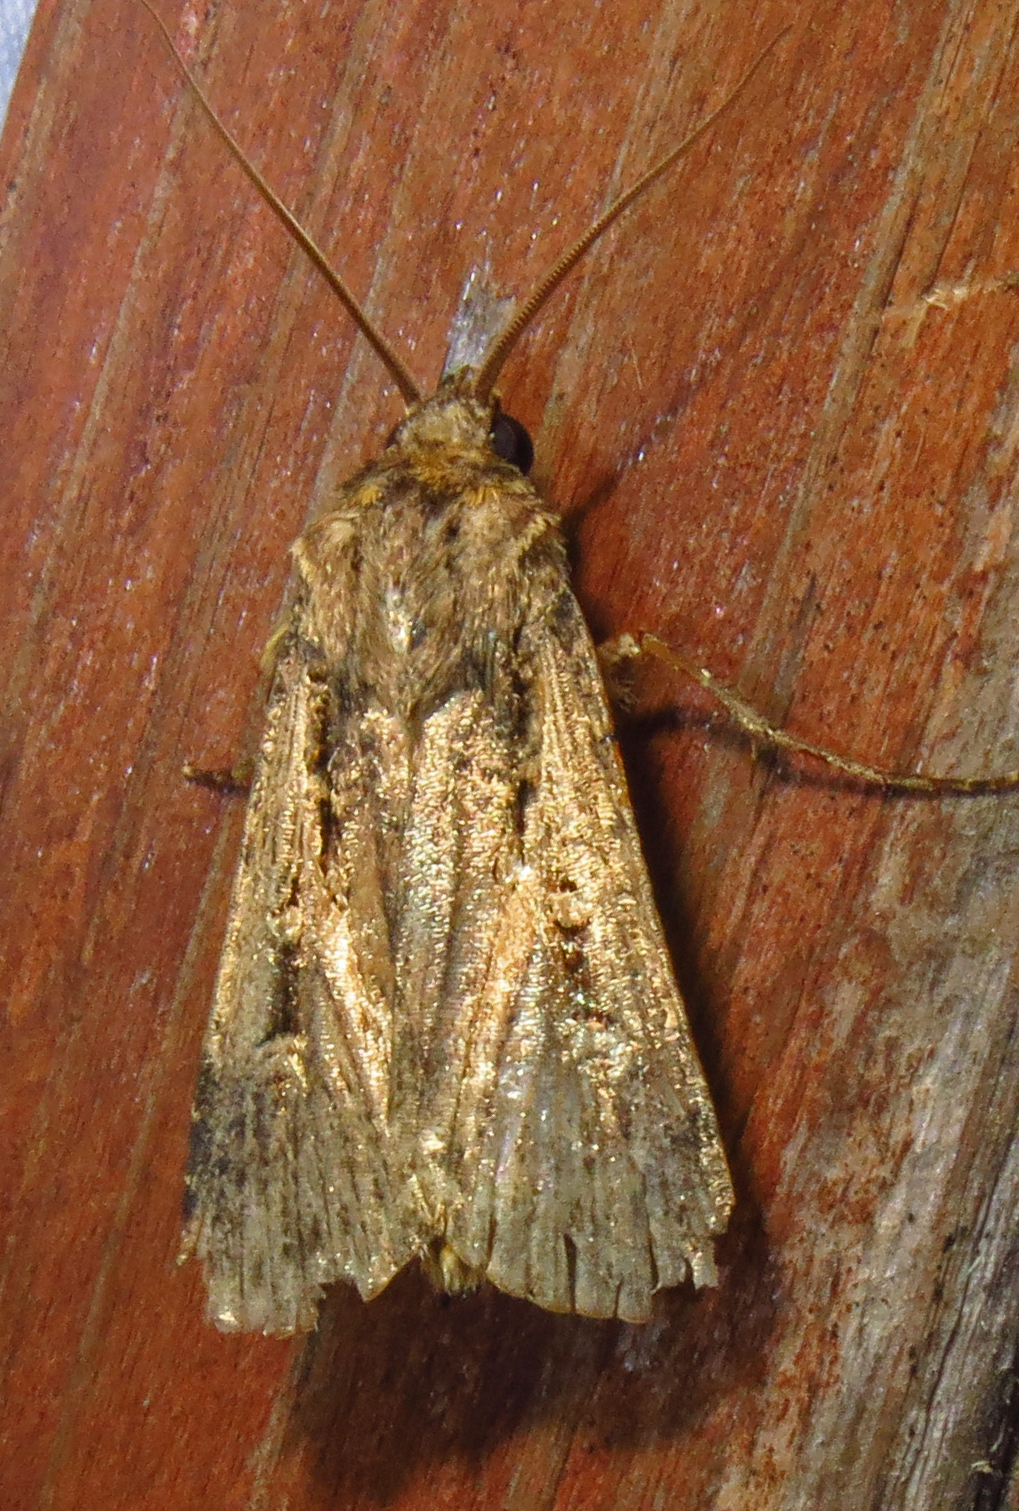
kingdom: Animalia
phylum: Arthropoda
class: Insecta
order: Lepidoptera
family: Noctuidae
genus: Feltia
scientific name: Feltia subterranea
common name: Granulate cutworm
